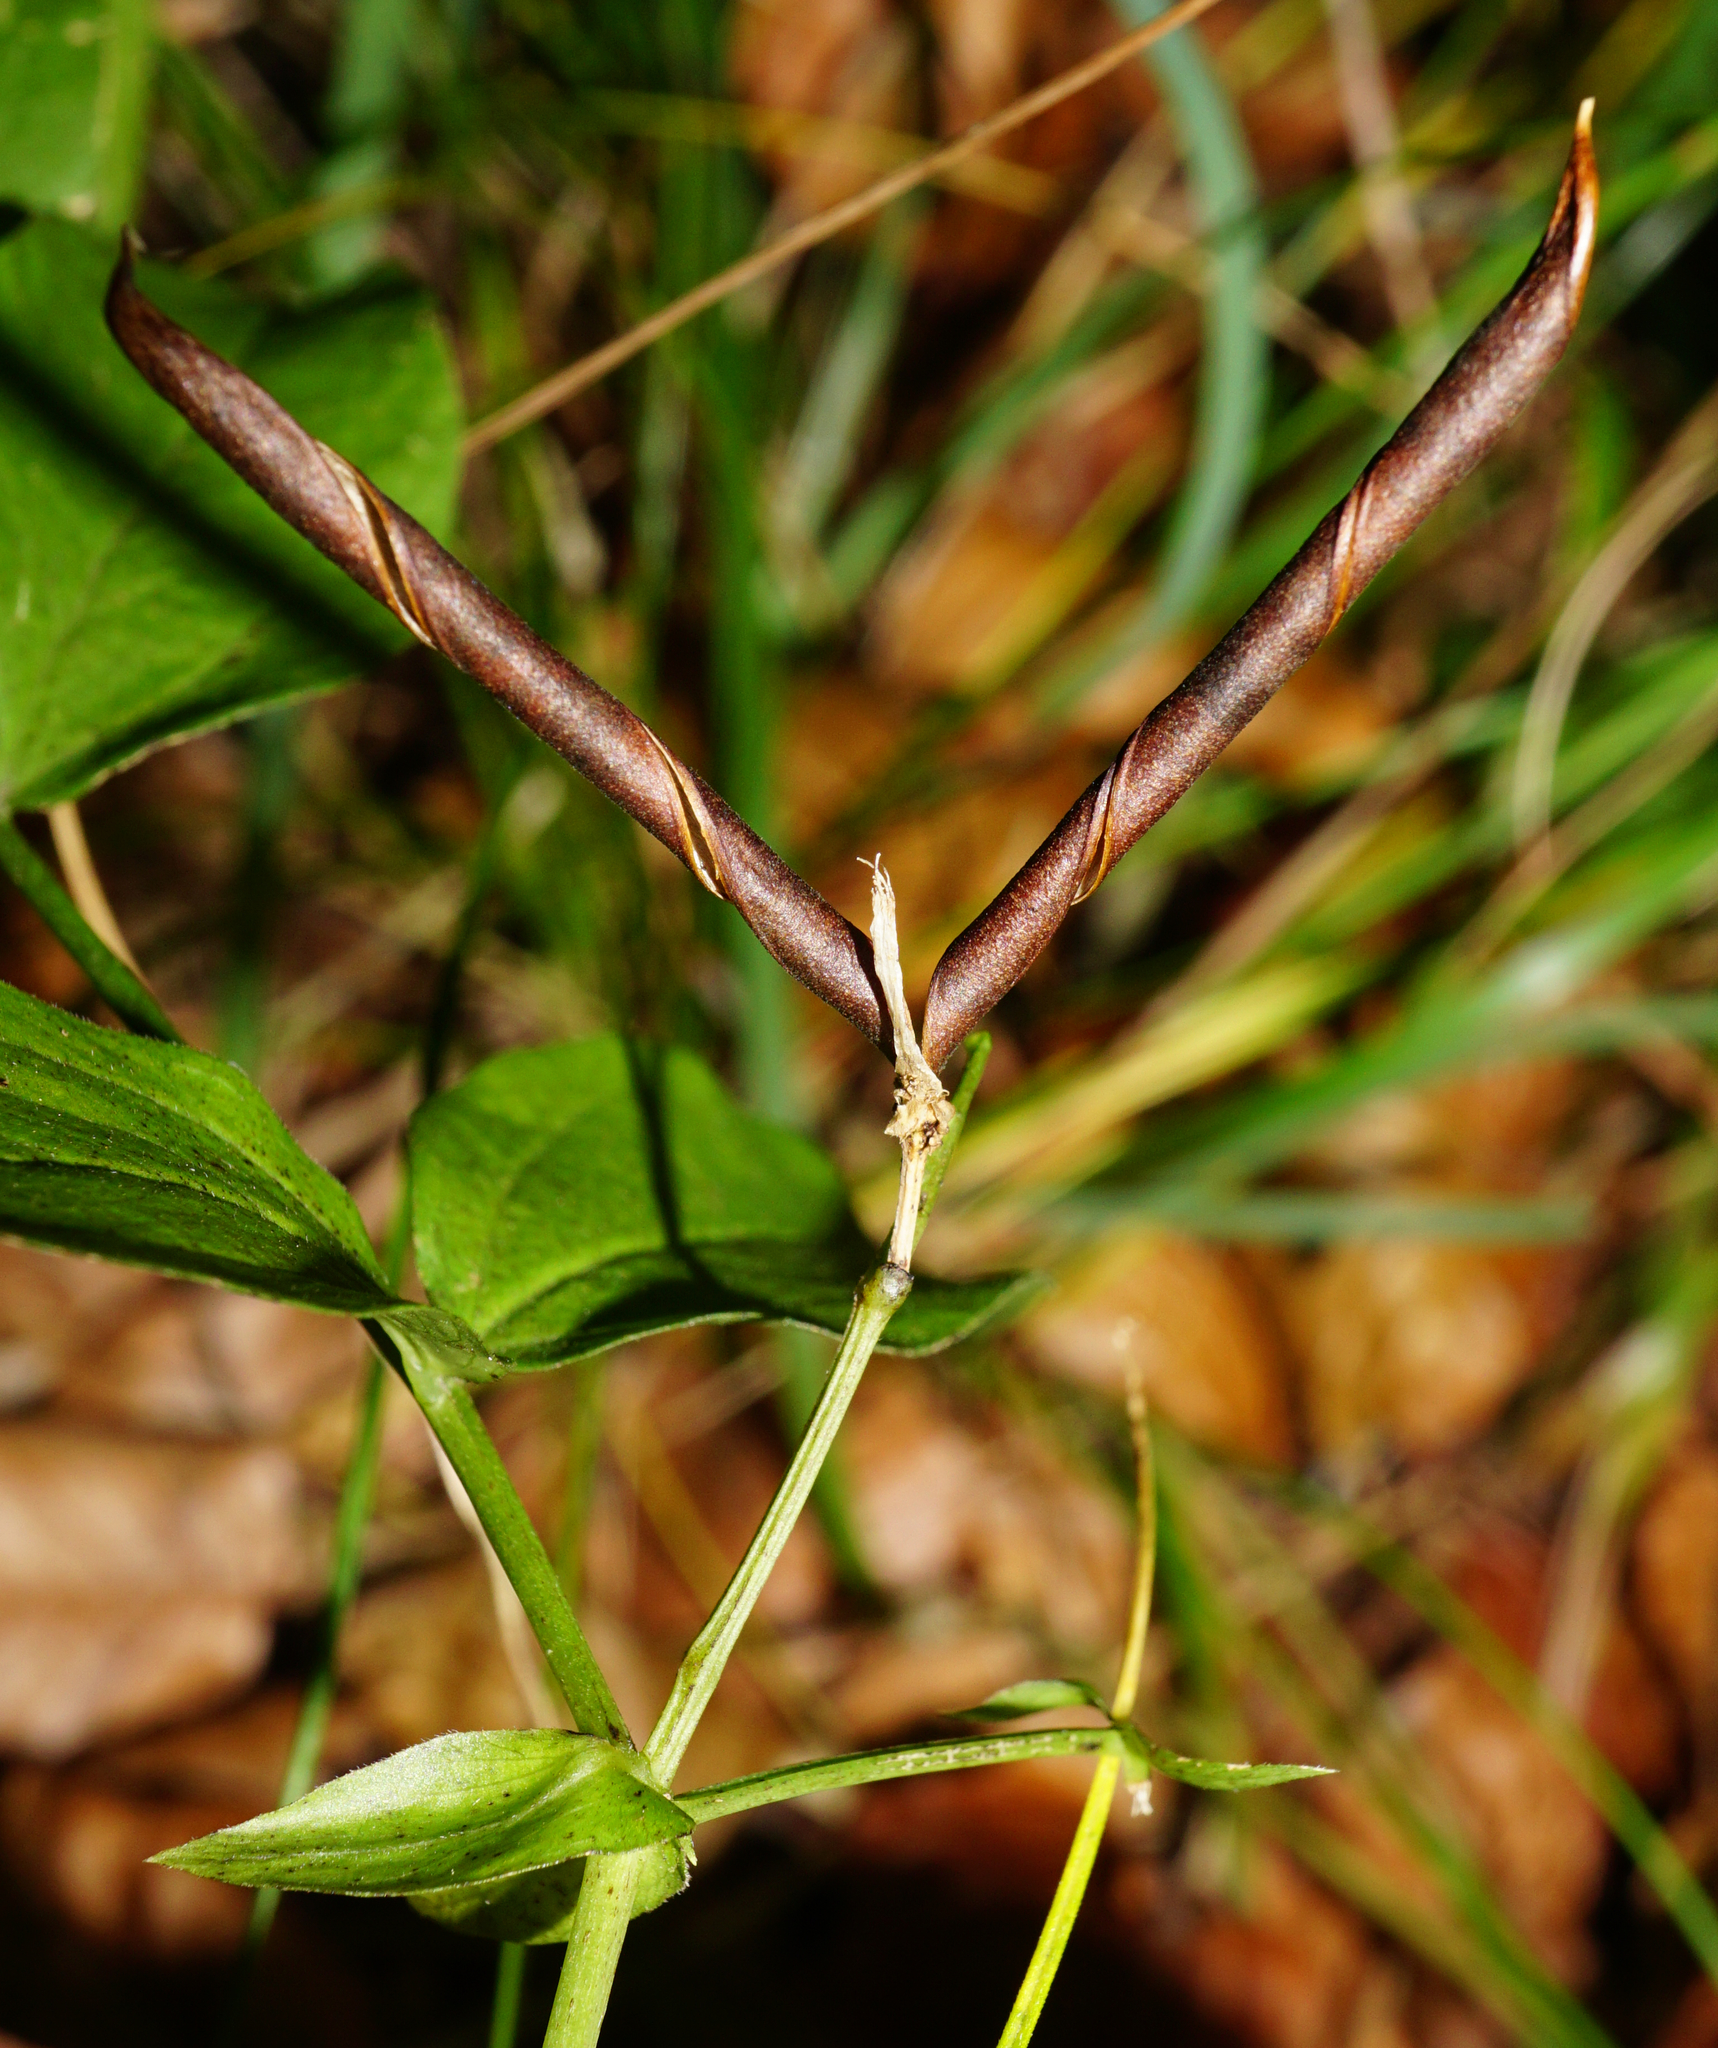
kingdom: Plantae
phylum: Tracheophyta
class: Magnoliopsida
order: Fabales
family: Fabaceae
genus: Lathyrus
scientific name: Lathyrus vernus
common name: Spring pea
